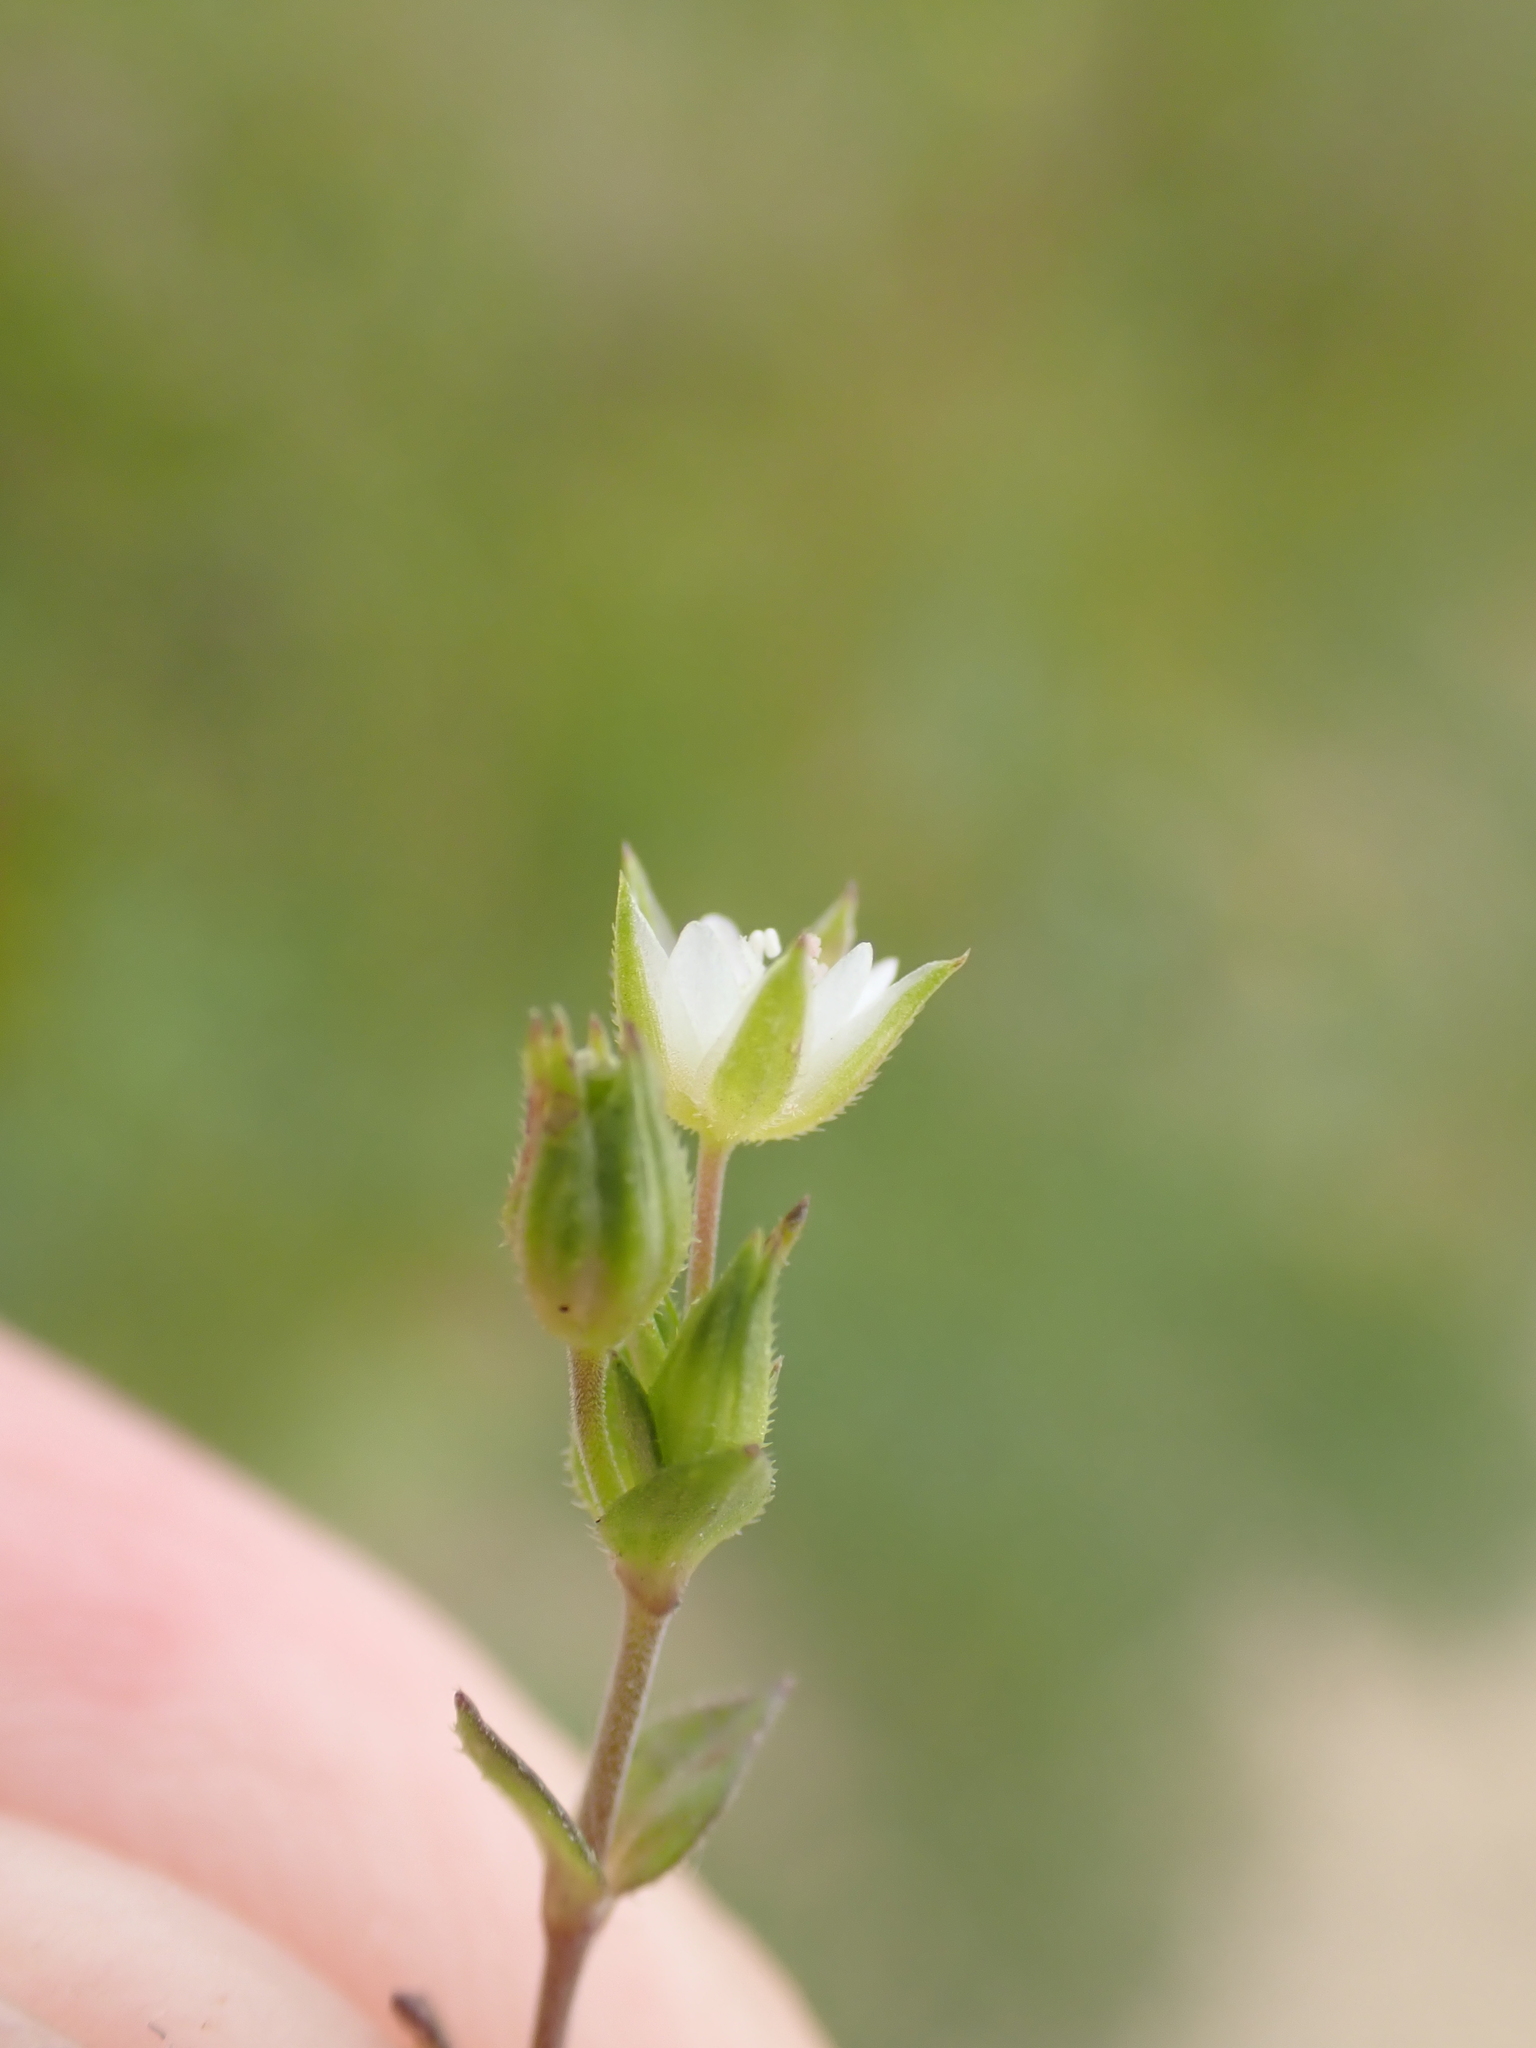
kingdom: Plantae
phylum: Tracheophyta
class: Magnoliopsida
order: Caryophyllales
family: Caryophyllaceae
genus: Arenaria
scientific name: Arenaria serpyllifolia
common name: Thyme-leaved sandwort
